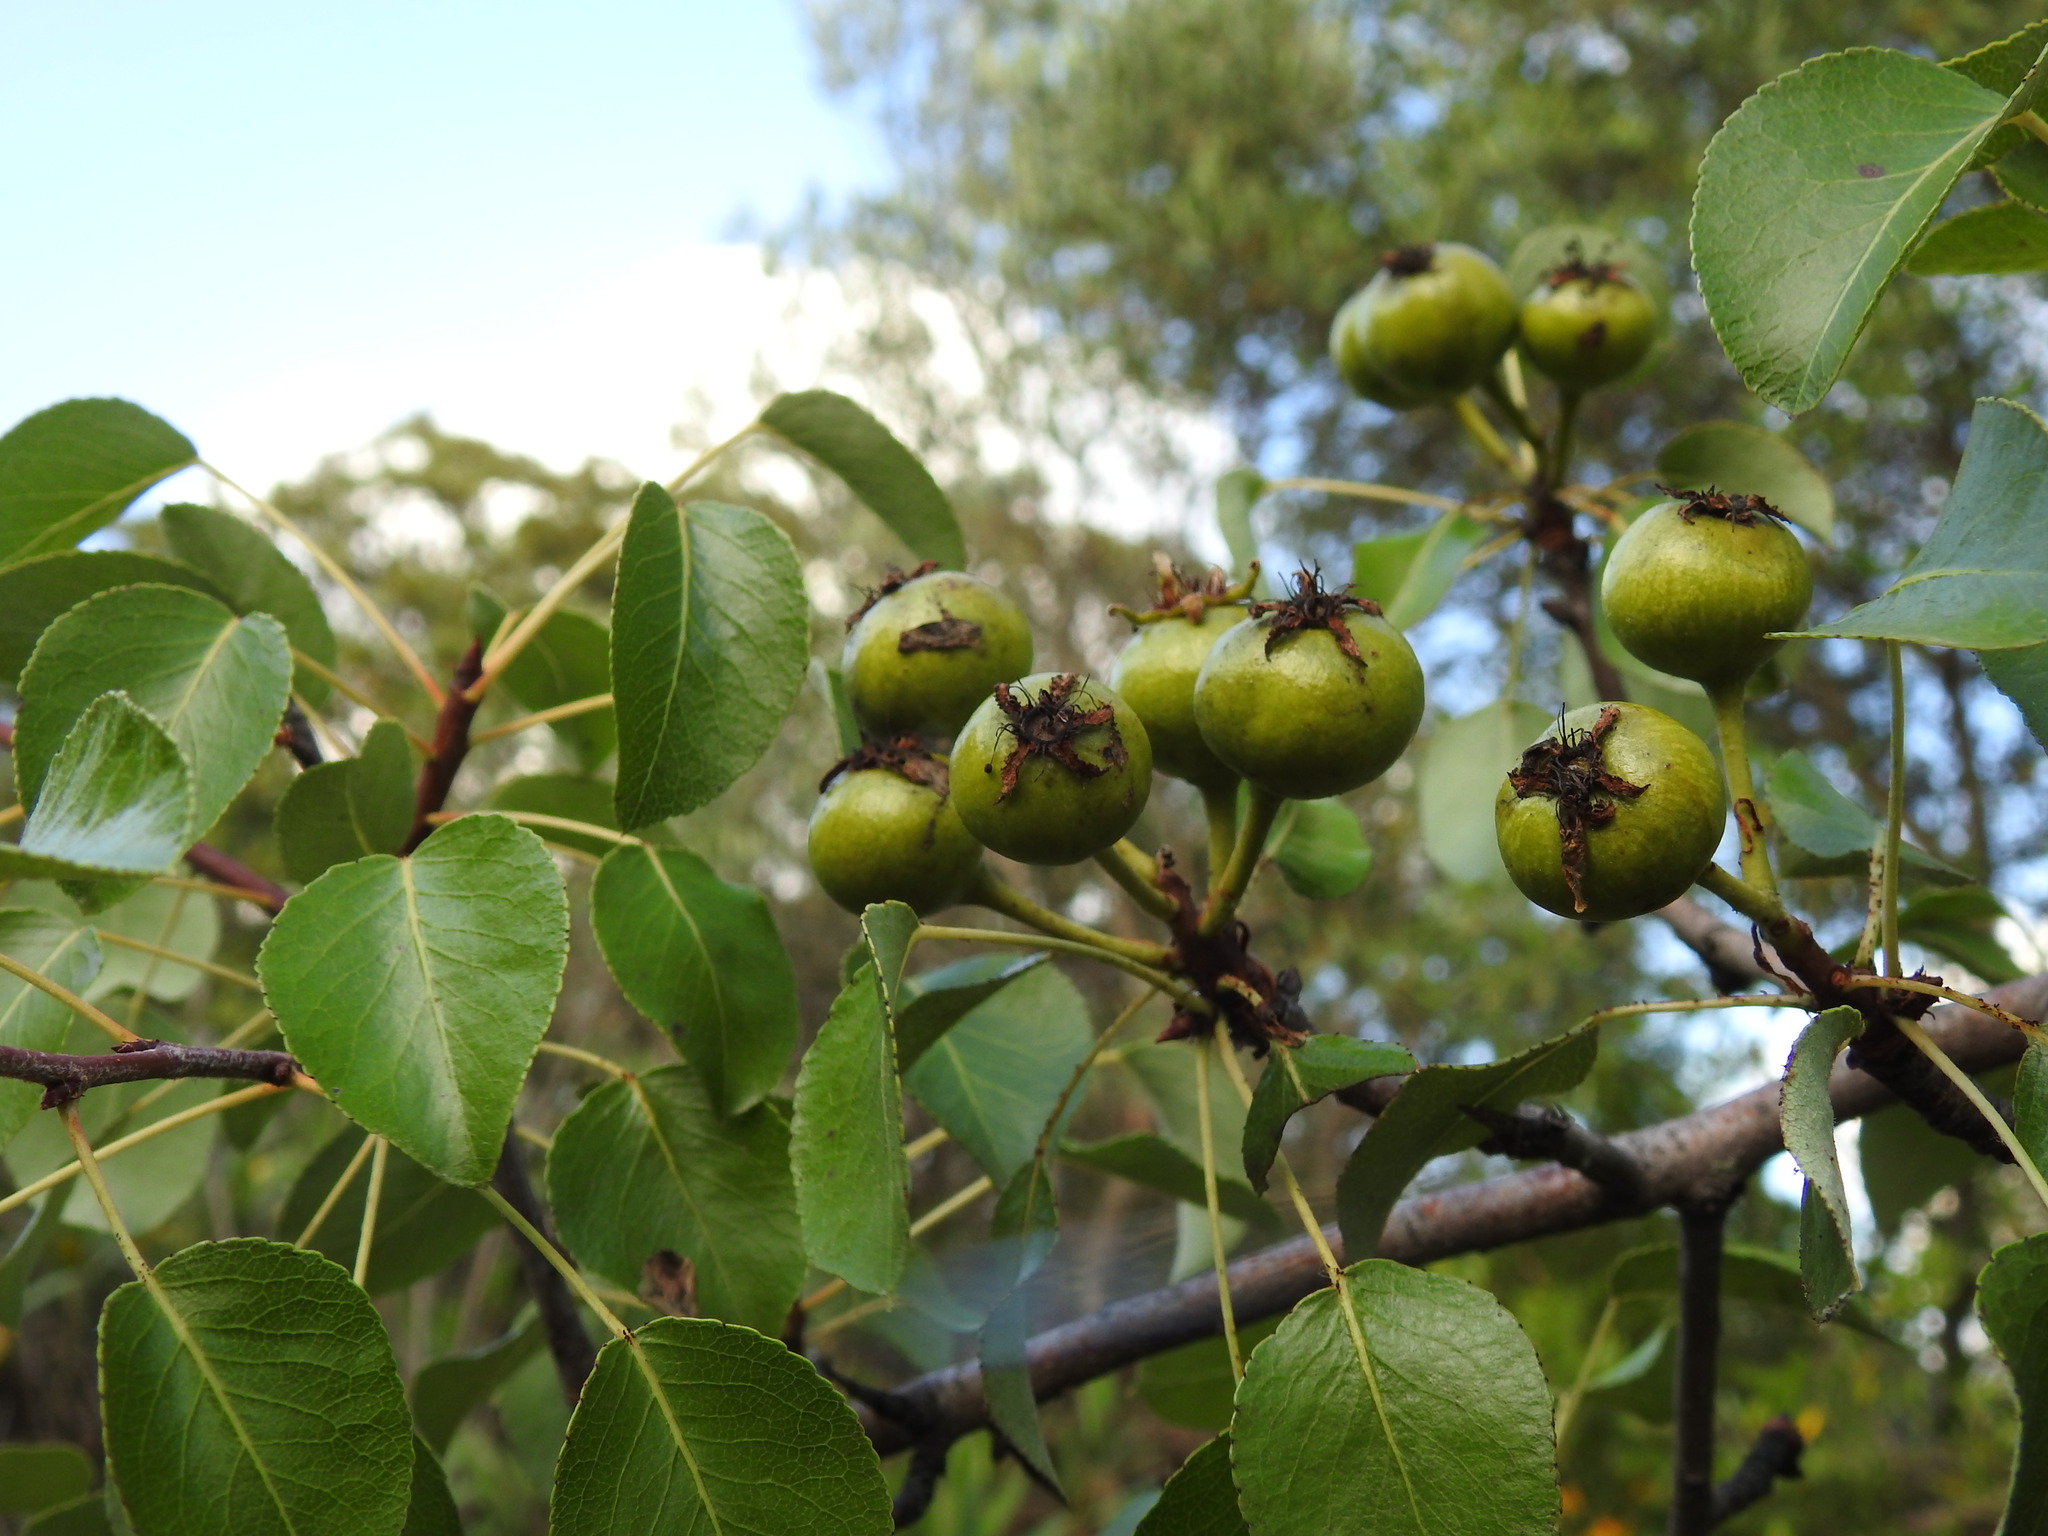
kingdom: Plantae
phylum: Tracheophyta
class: Magnoliopsida
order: Rosales
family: Rosaceae
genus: Pyrus
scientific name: Pyrus bourgaeana
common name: Iberian pear
